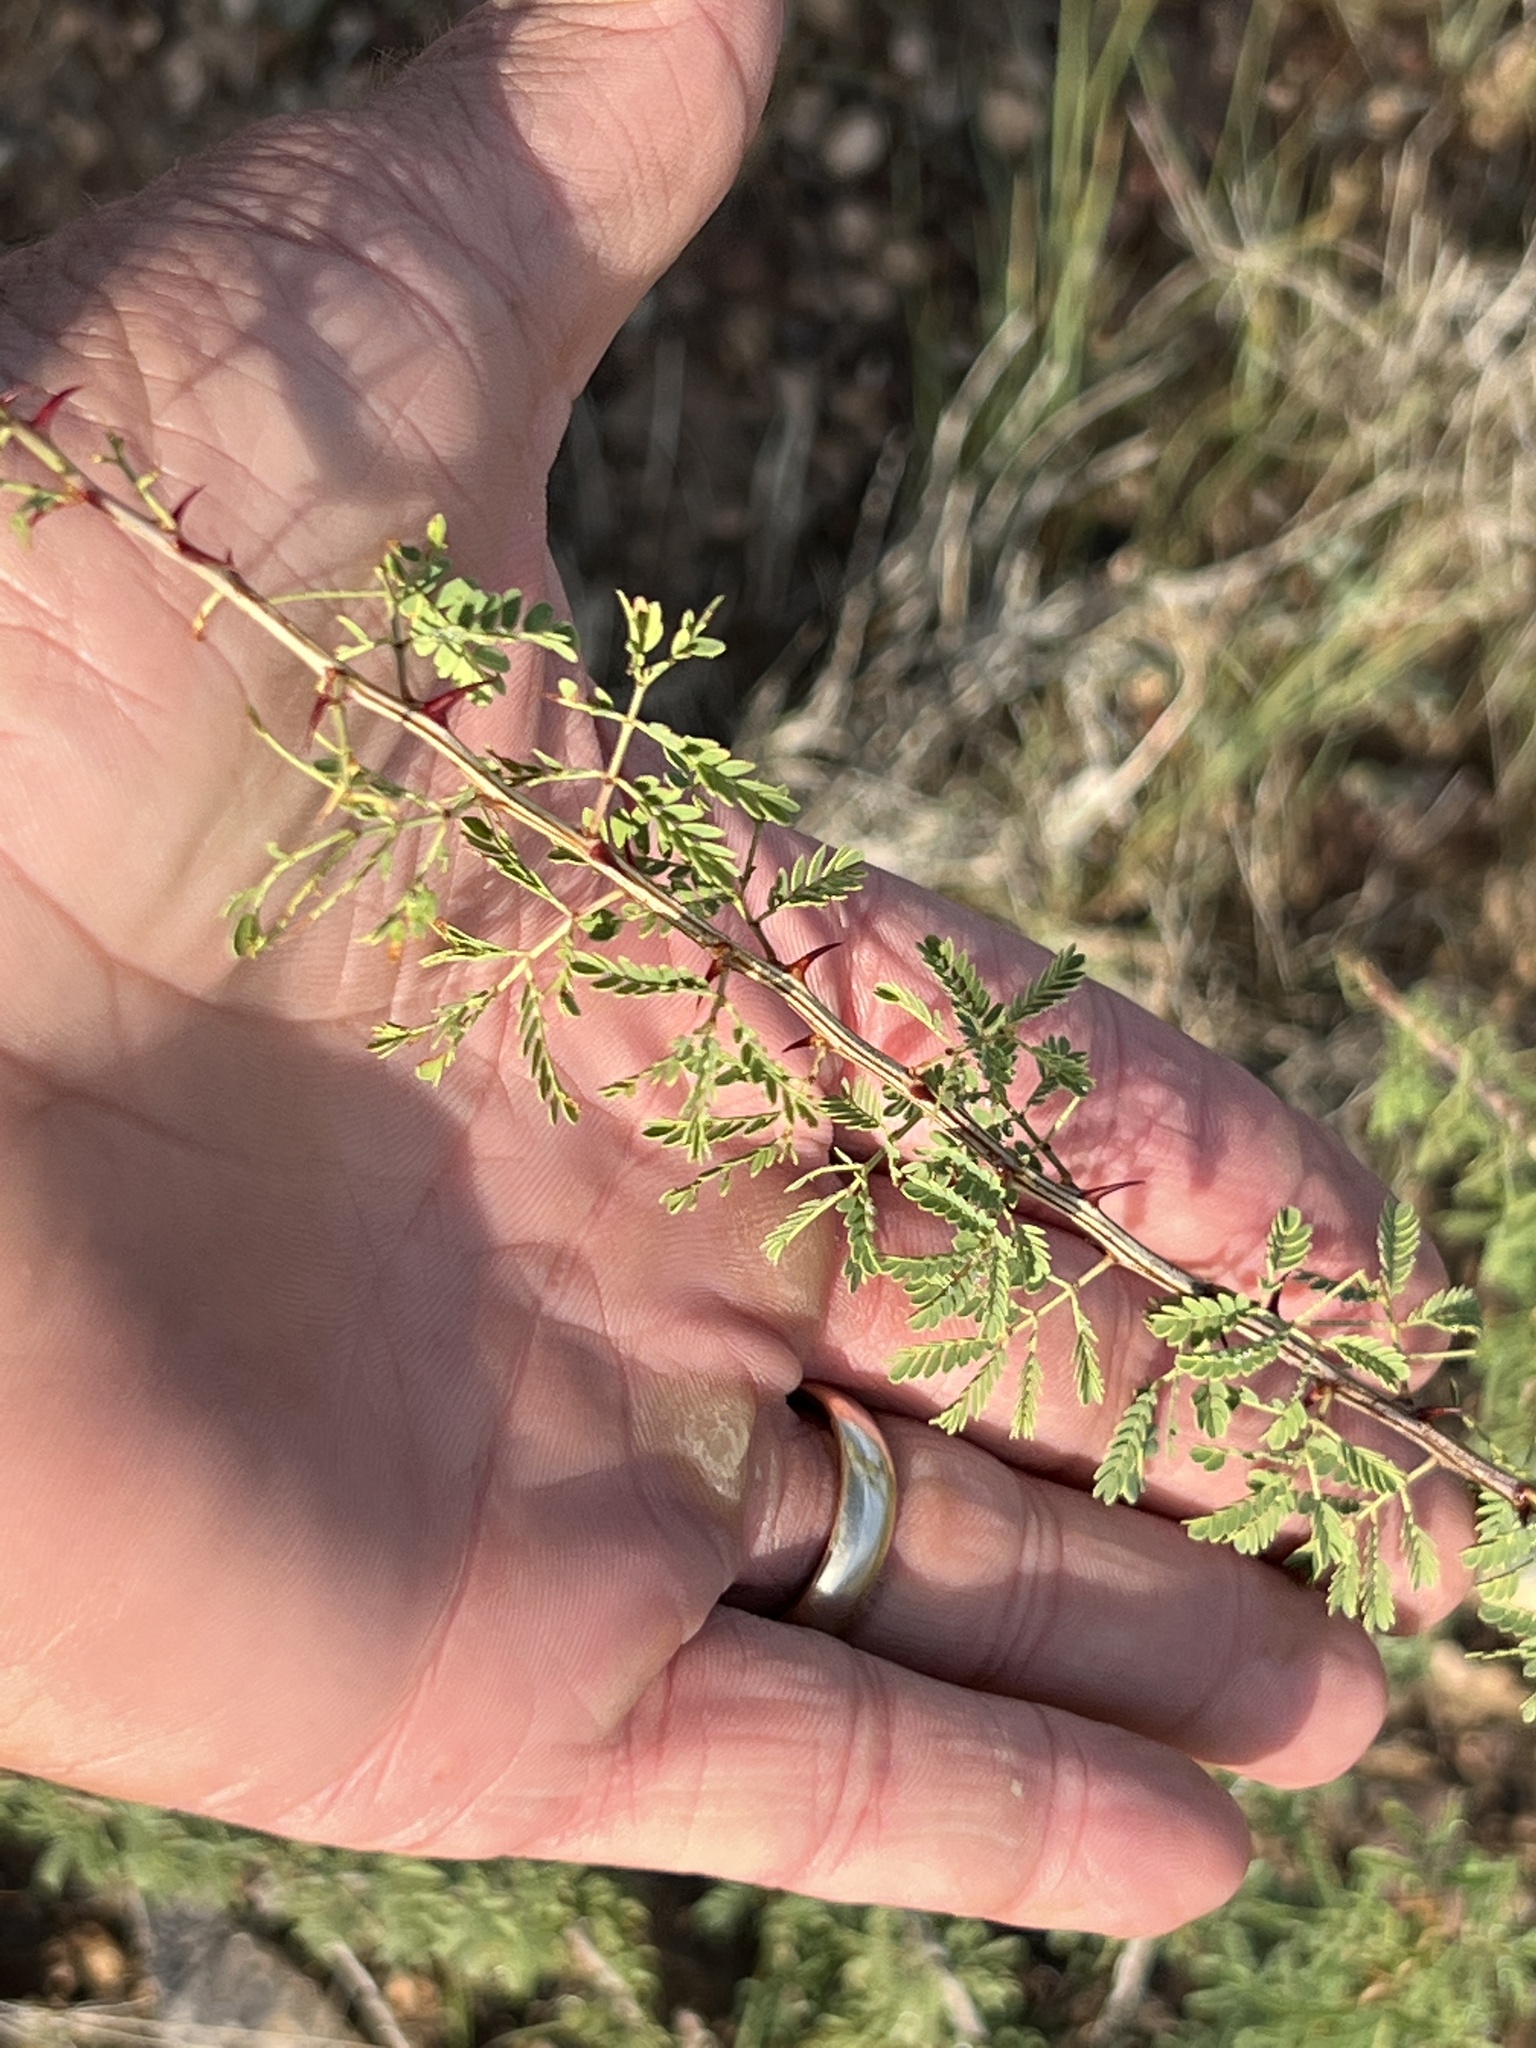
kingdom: Plantae
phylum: Tracheophyta
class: Magnoliopsida
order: Fabales
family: Fabaceae
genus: Vachellia
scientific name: Vachellia constricta
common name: Mescat acacia
